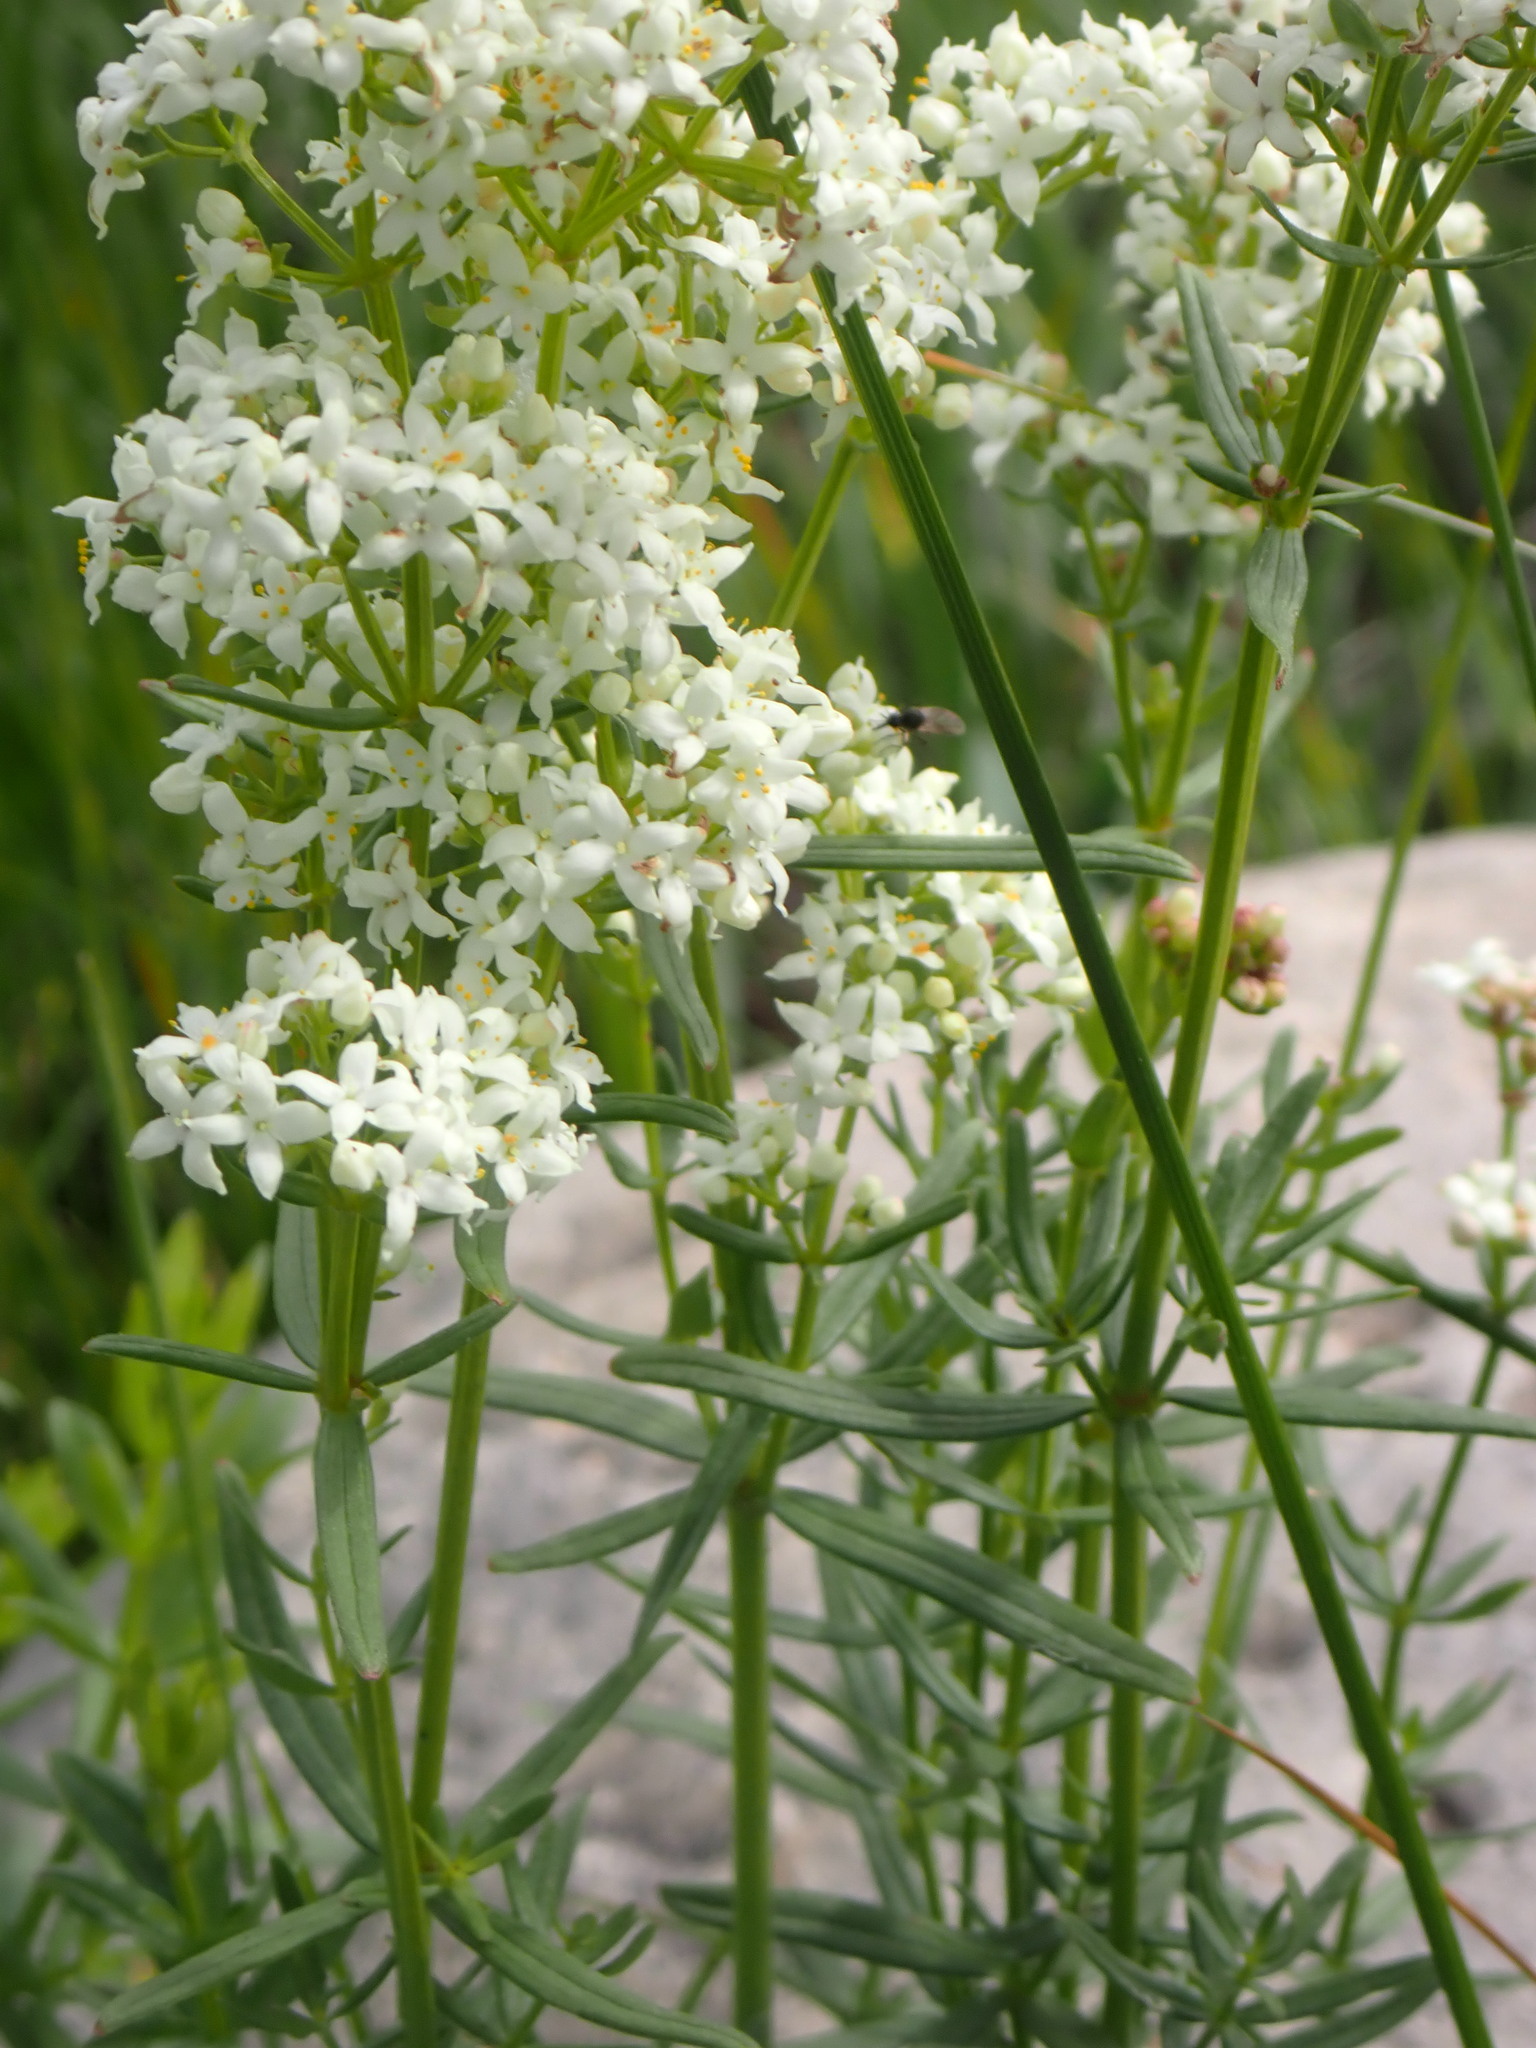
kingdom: Plantae
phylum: Tracheophyta
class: Magnoliopsida
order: Gentianales
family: Rubiaceae
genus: Galium
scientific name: Galium boreale
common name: Northern bedstraw
